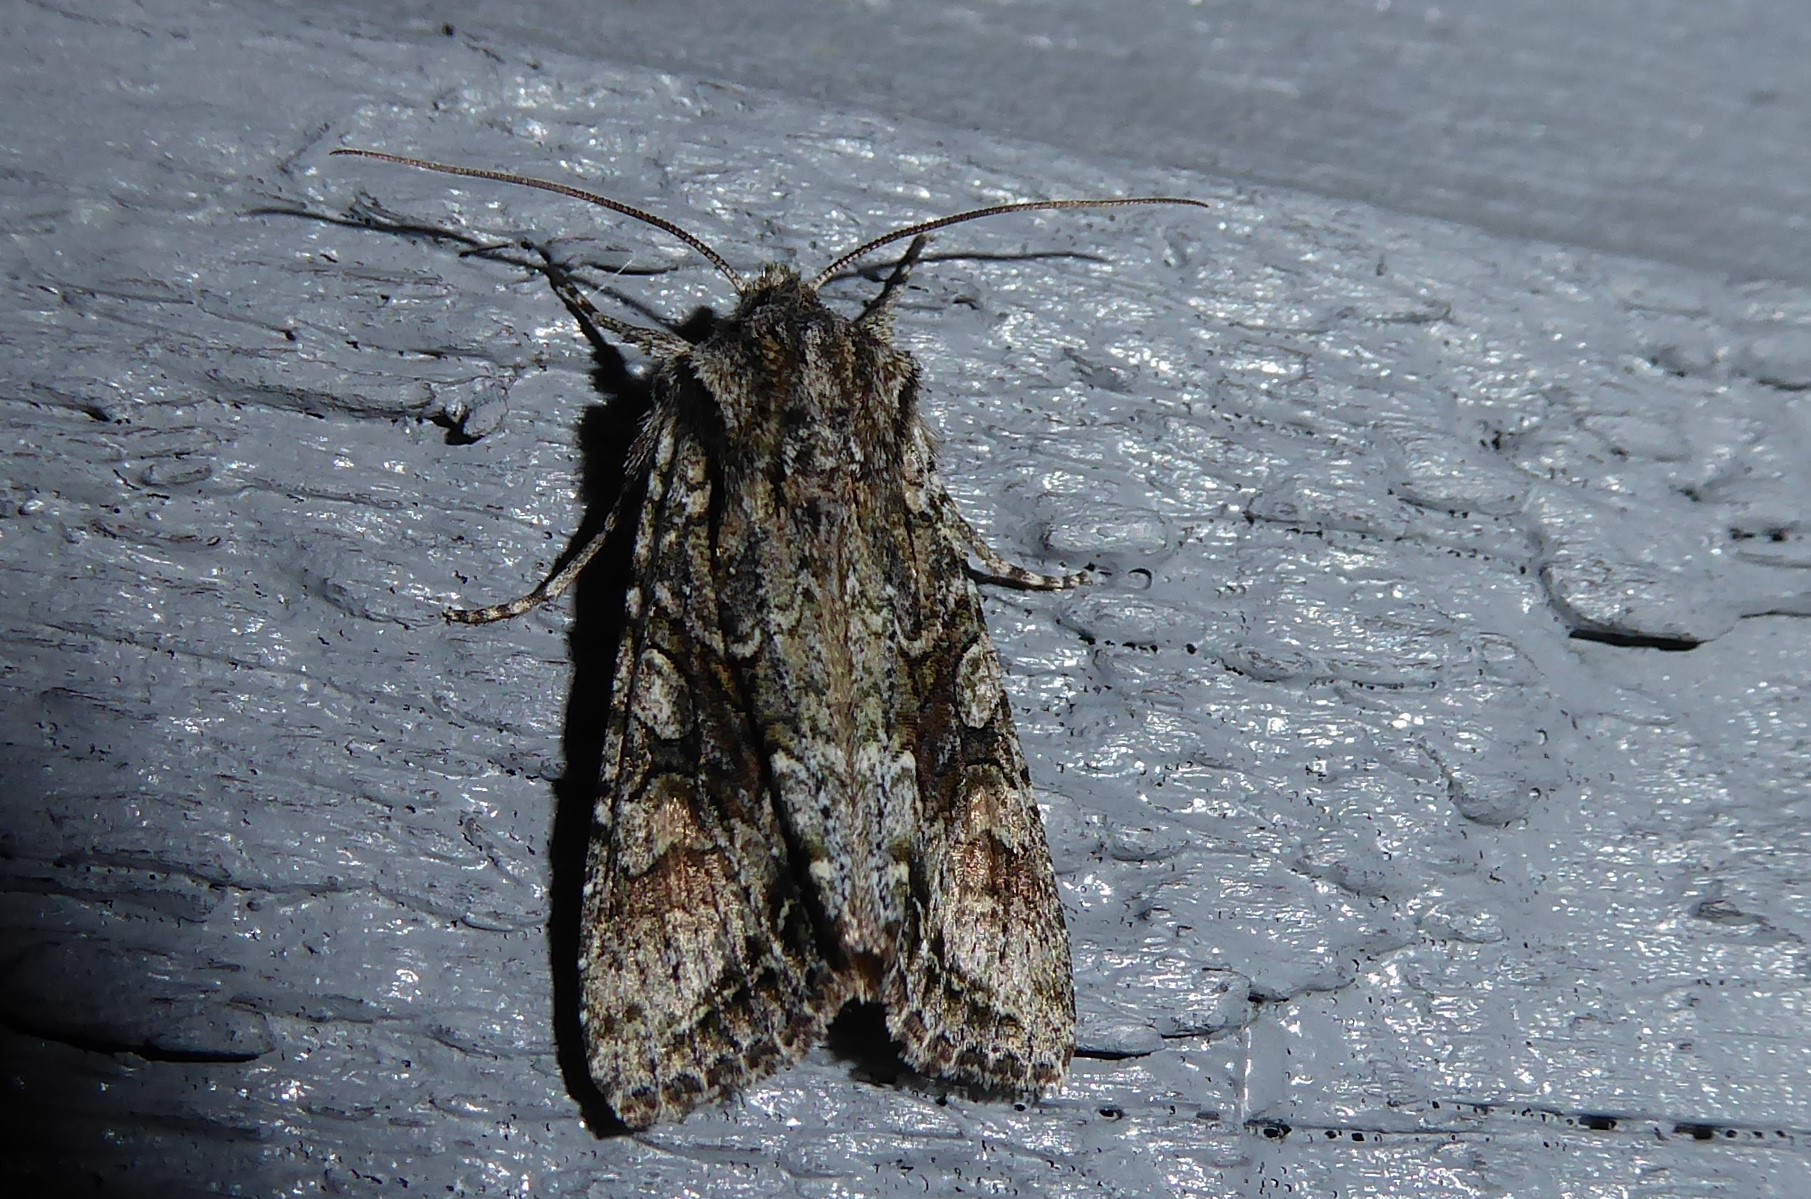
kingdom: Animalia
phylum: Arthropoda
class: Insecta
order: Lepidoptera
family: Noctuidae
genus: Ichneutica
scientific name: Ichneutica mutans
